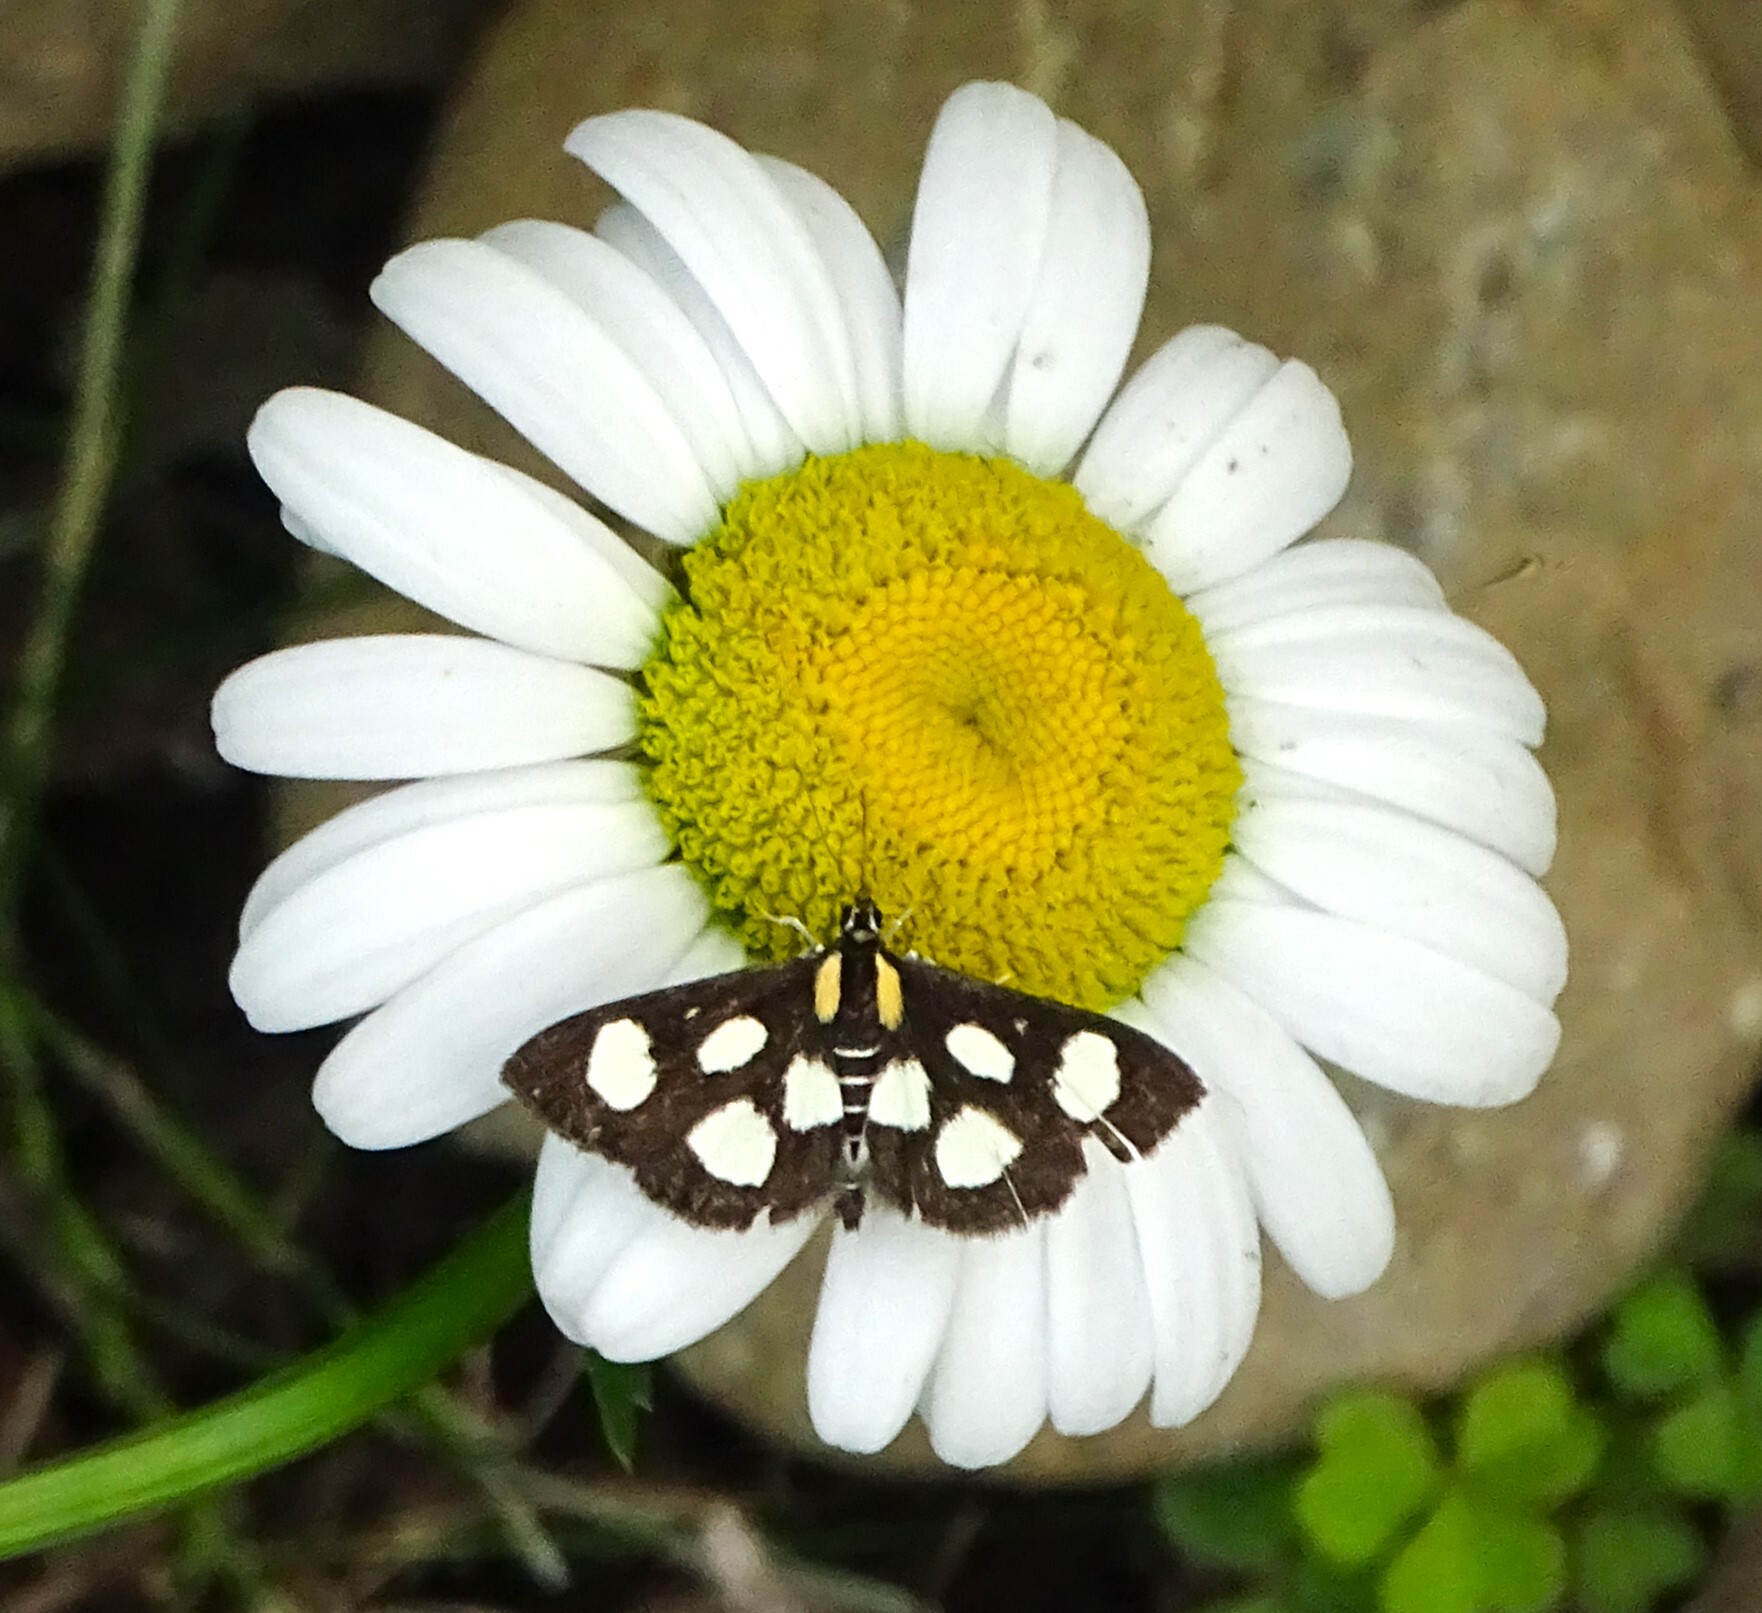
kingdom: Animalia
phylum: Arthropoda
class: Insecta
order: Lepidoptera
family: Crambidae
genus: Anania
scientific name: Anania funebris
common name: White-spotted sable moth
